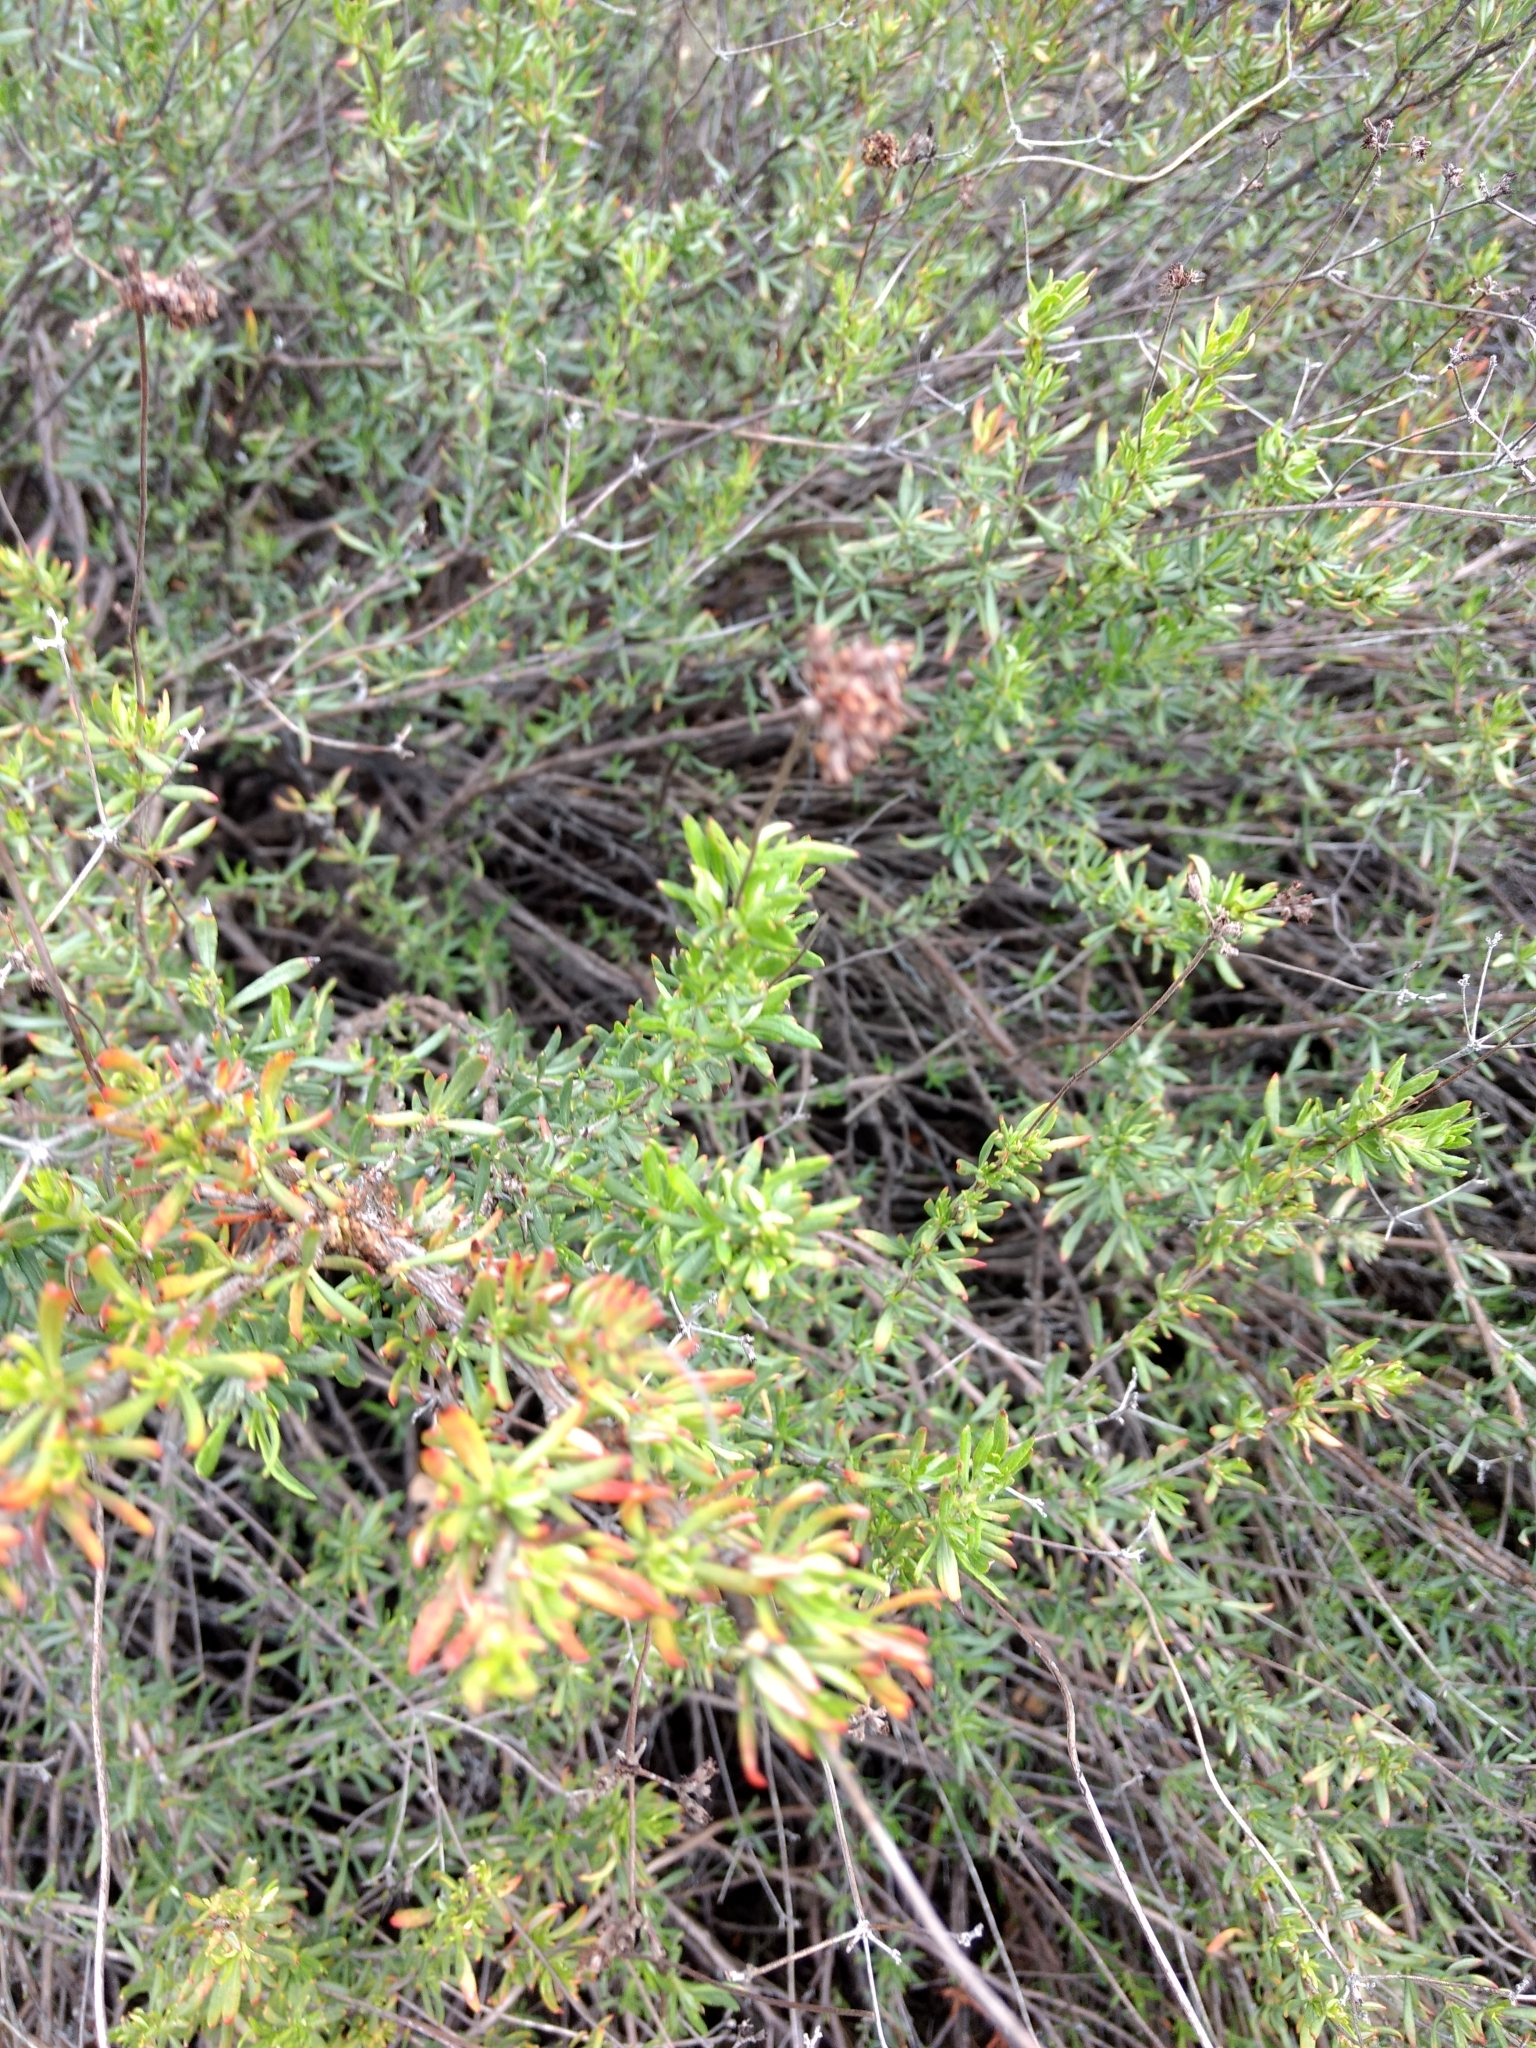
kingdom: Plantae
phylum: Tracheophyta
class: Magnoliopsida
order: Caryophyllales
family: Polygonaceae
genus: Eriogonum
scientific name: Eriogonum fasciculatum
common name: California wild buckwheat
